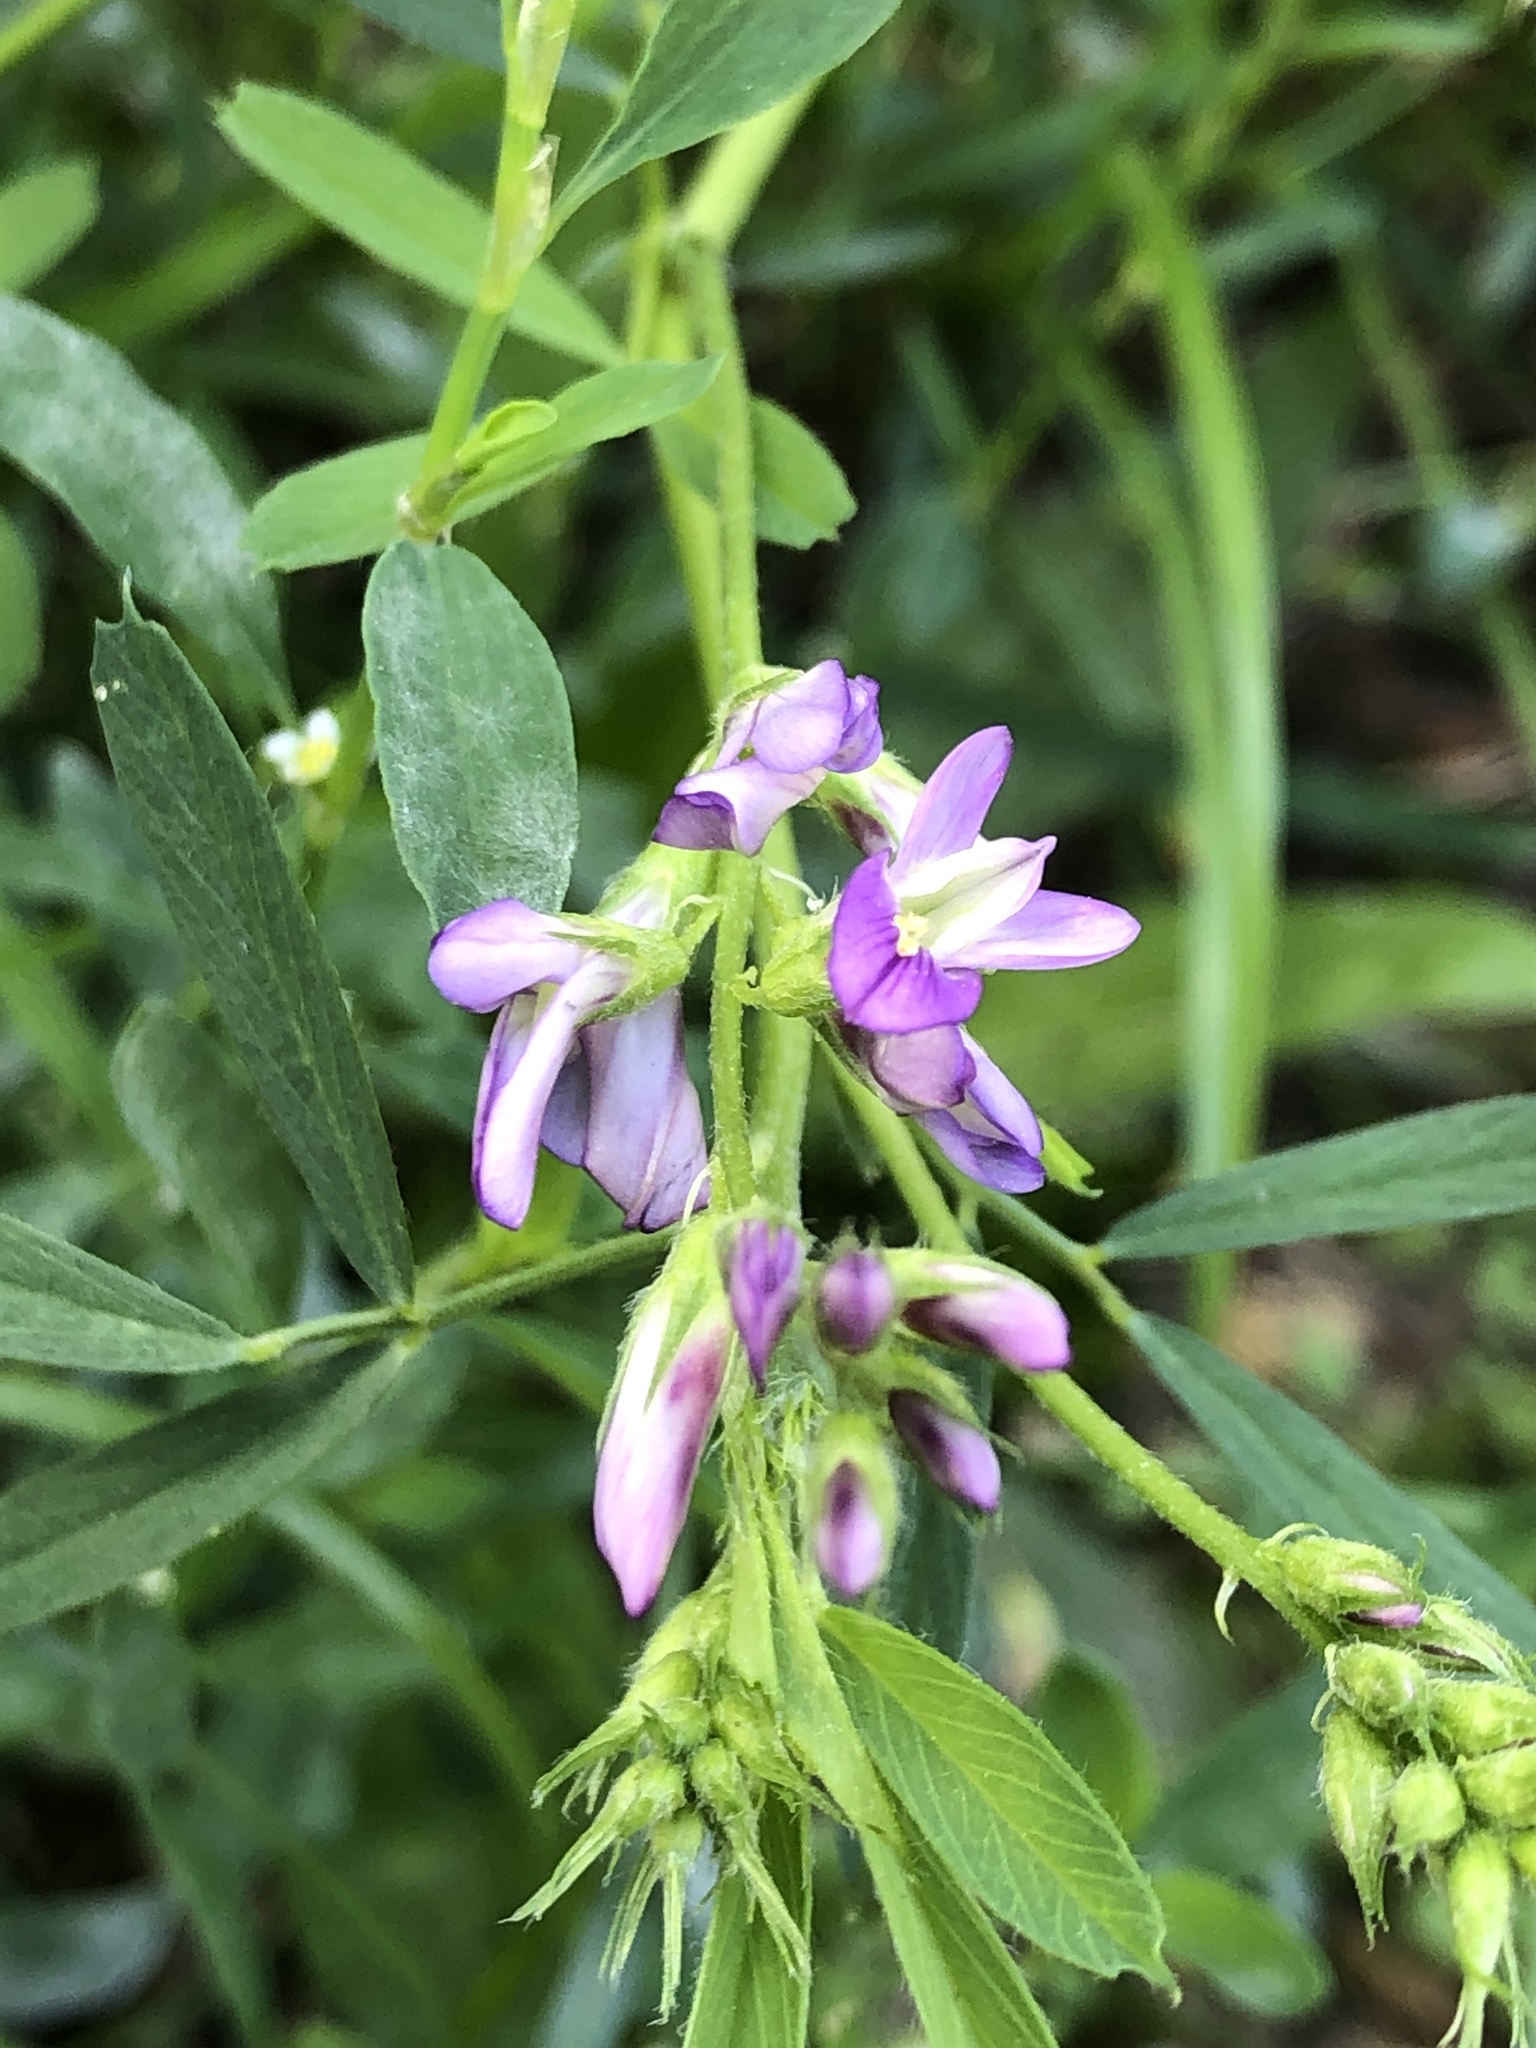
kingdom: Plantae
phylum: Tracheophyta
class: Magnoliopsida
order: Fabales
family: Fabaceae
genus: Medicago
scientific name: Medicago sativa
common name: Alfalfa
